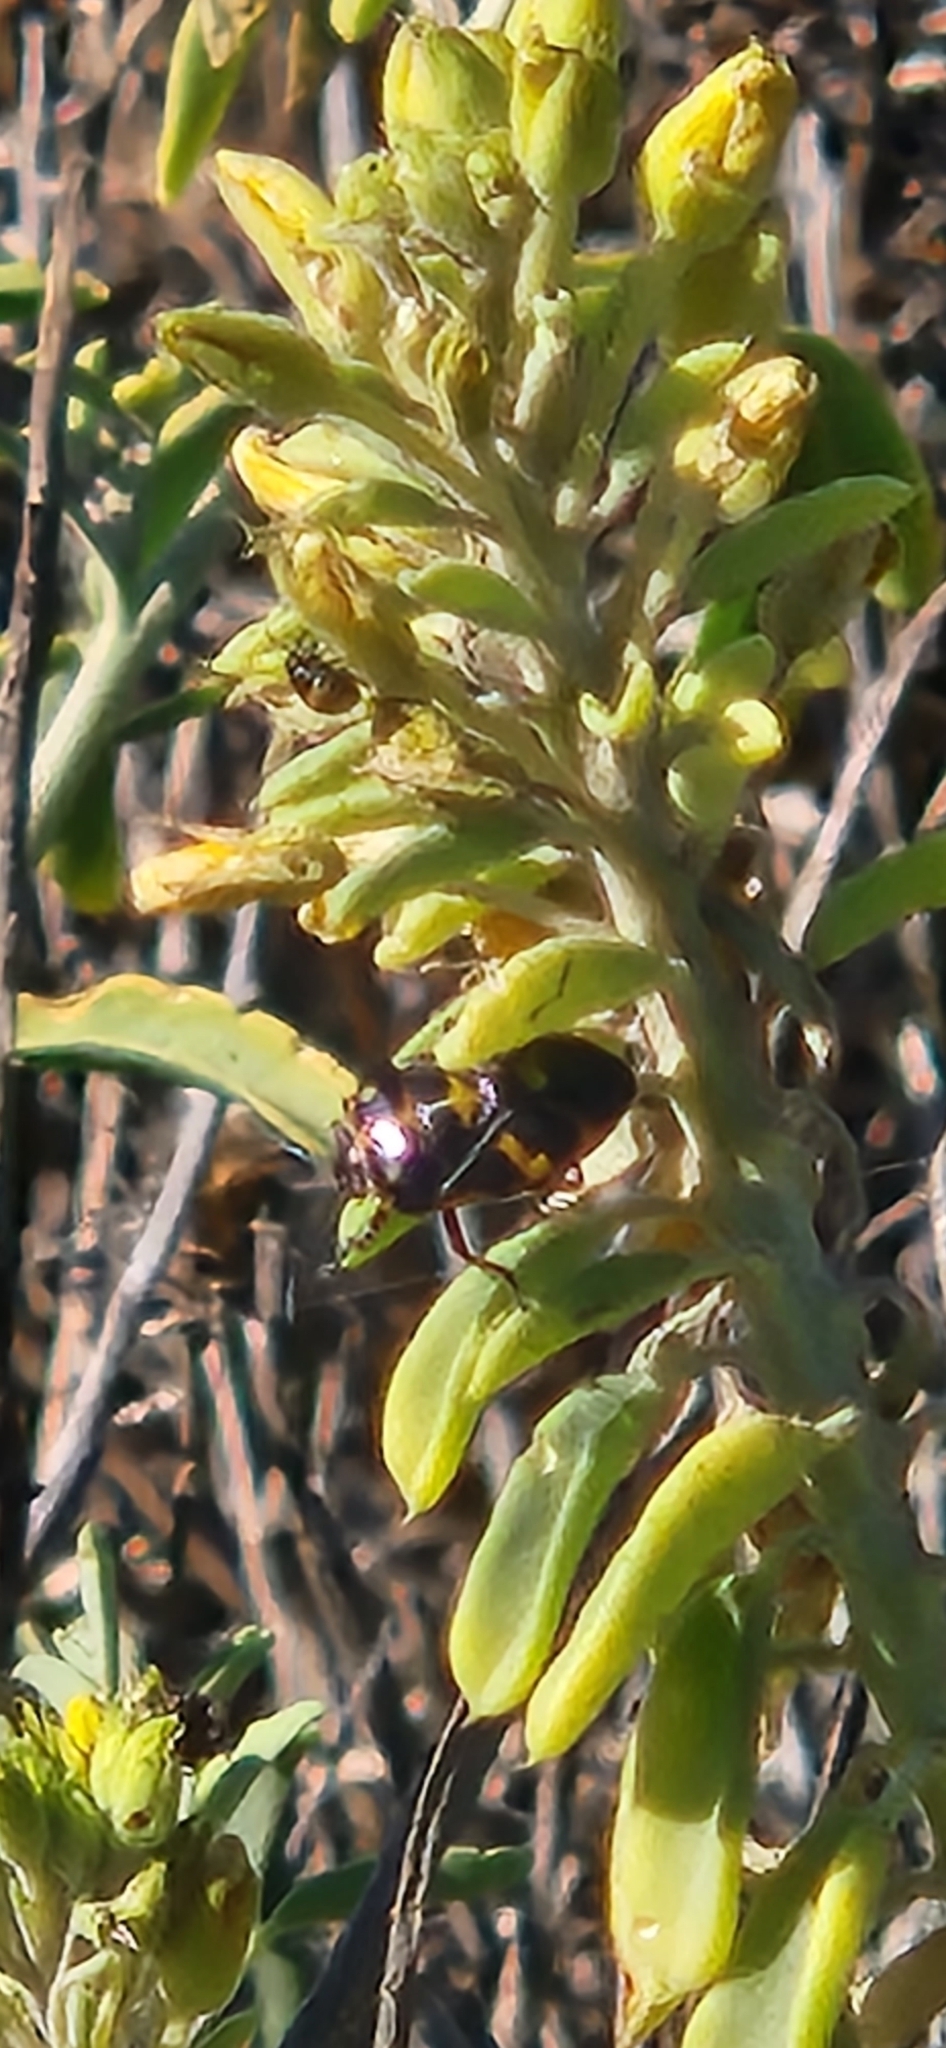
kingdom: Animalia
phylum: Arthropoda
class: Insecta
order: Hemiptera
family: Pentatomidae
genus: Murgantia
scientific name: Murgantia histrionica
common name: Harlequin bug
